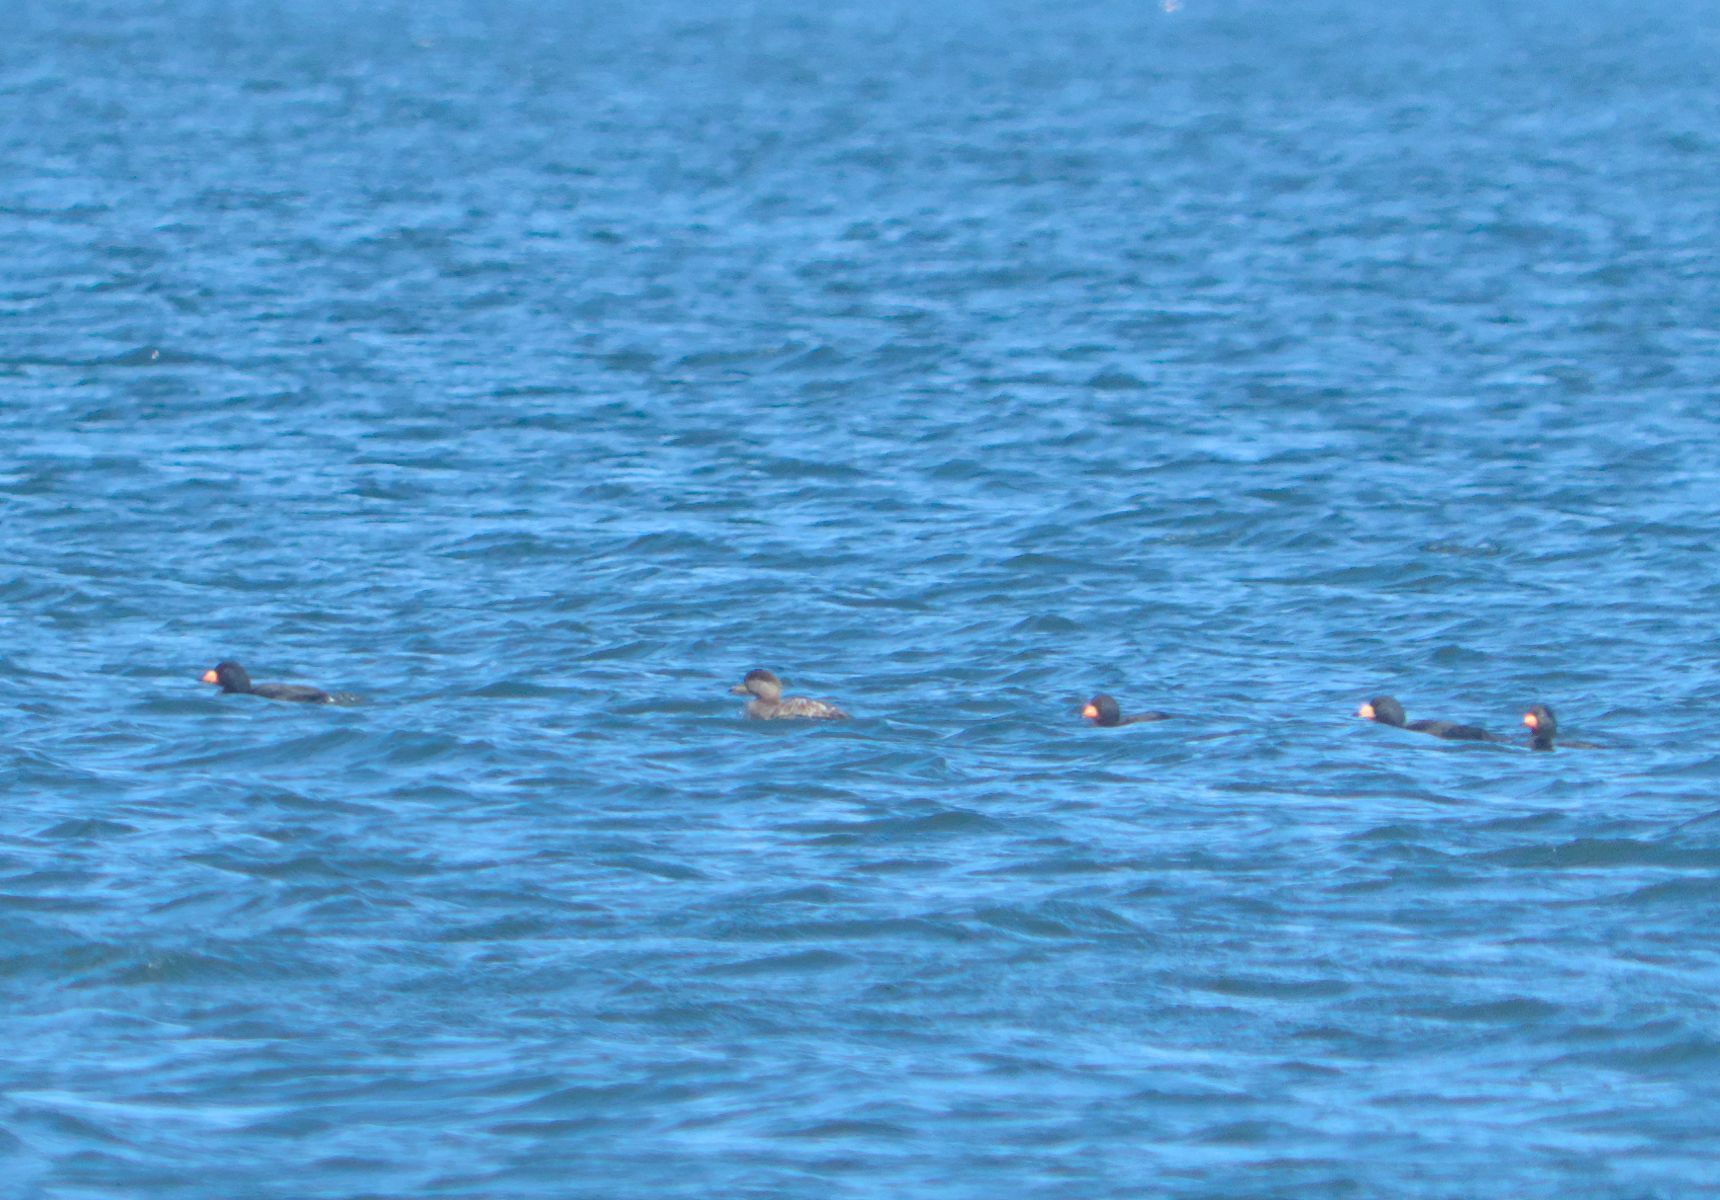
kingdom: Animalia
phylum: Chordata
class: Aves
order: Anseriformes
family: Anatidae
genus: Melanitta
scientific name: Melanitta americana
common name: Black scoter
